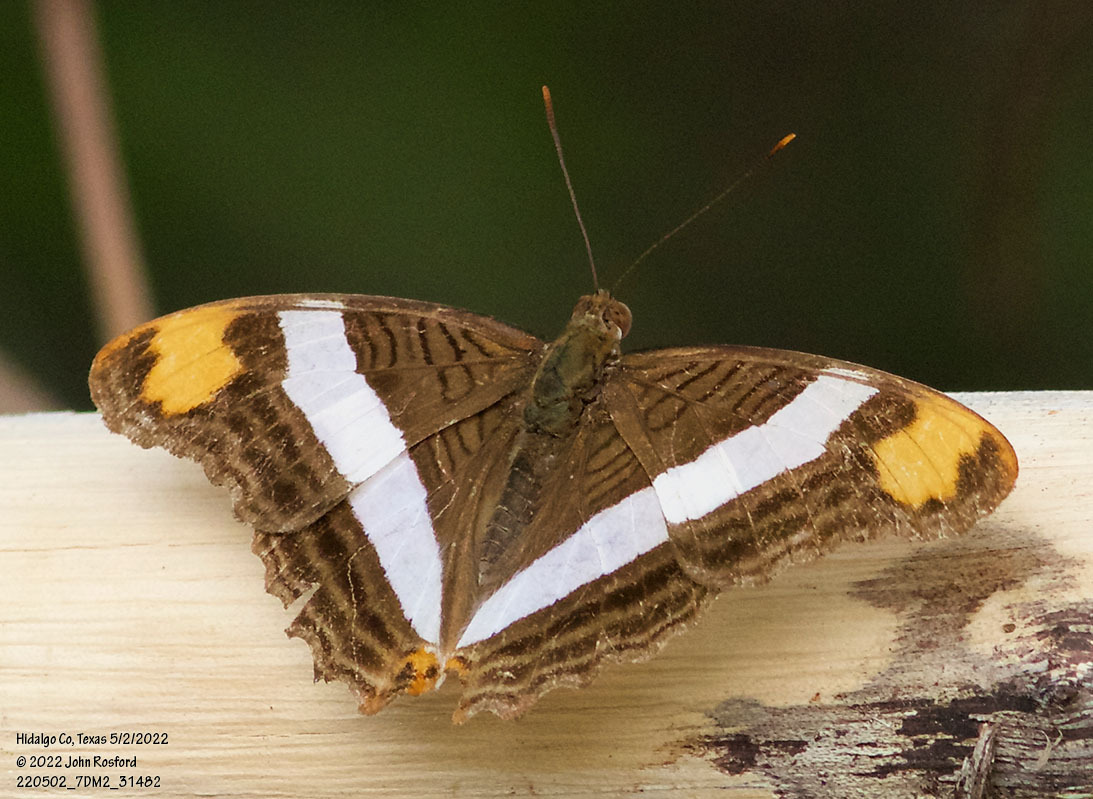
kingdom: Animalia
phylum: Arthropoda
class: Insecta
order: Lepidoptera
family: Nymphalidae
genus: Limenitis
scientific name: Limenitis fessonia
